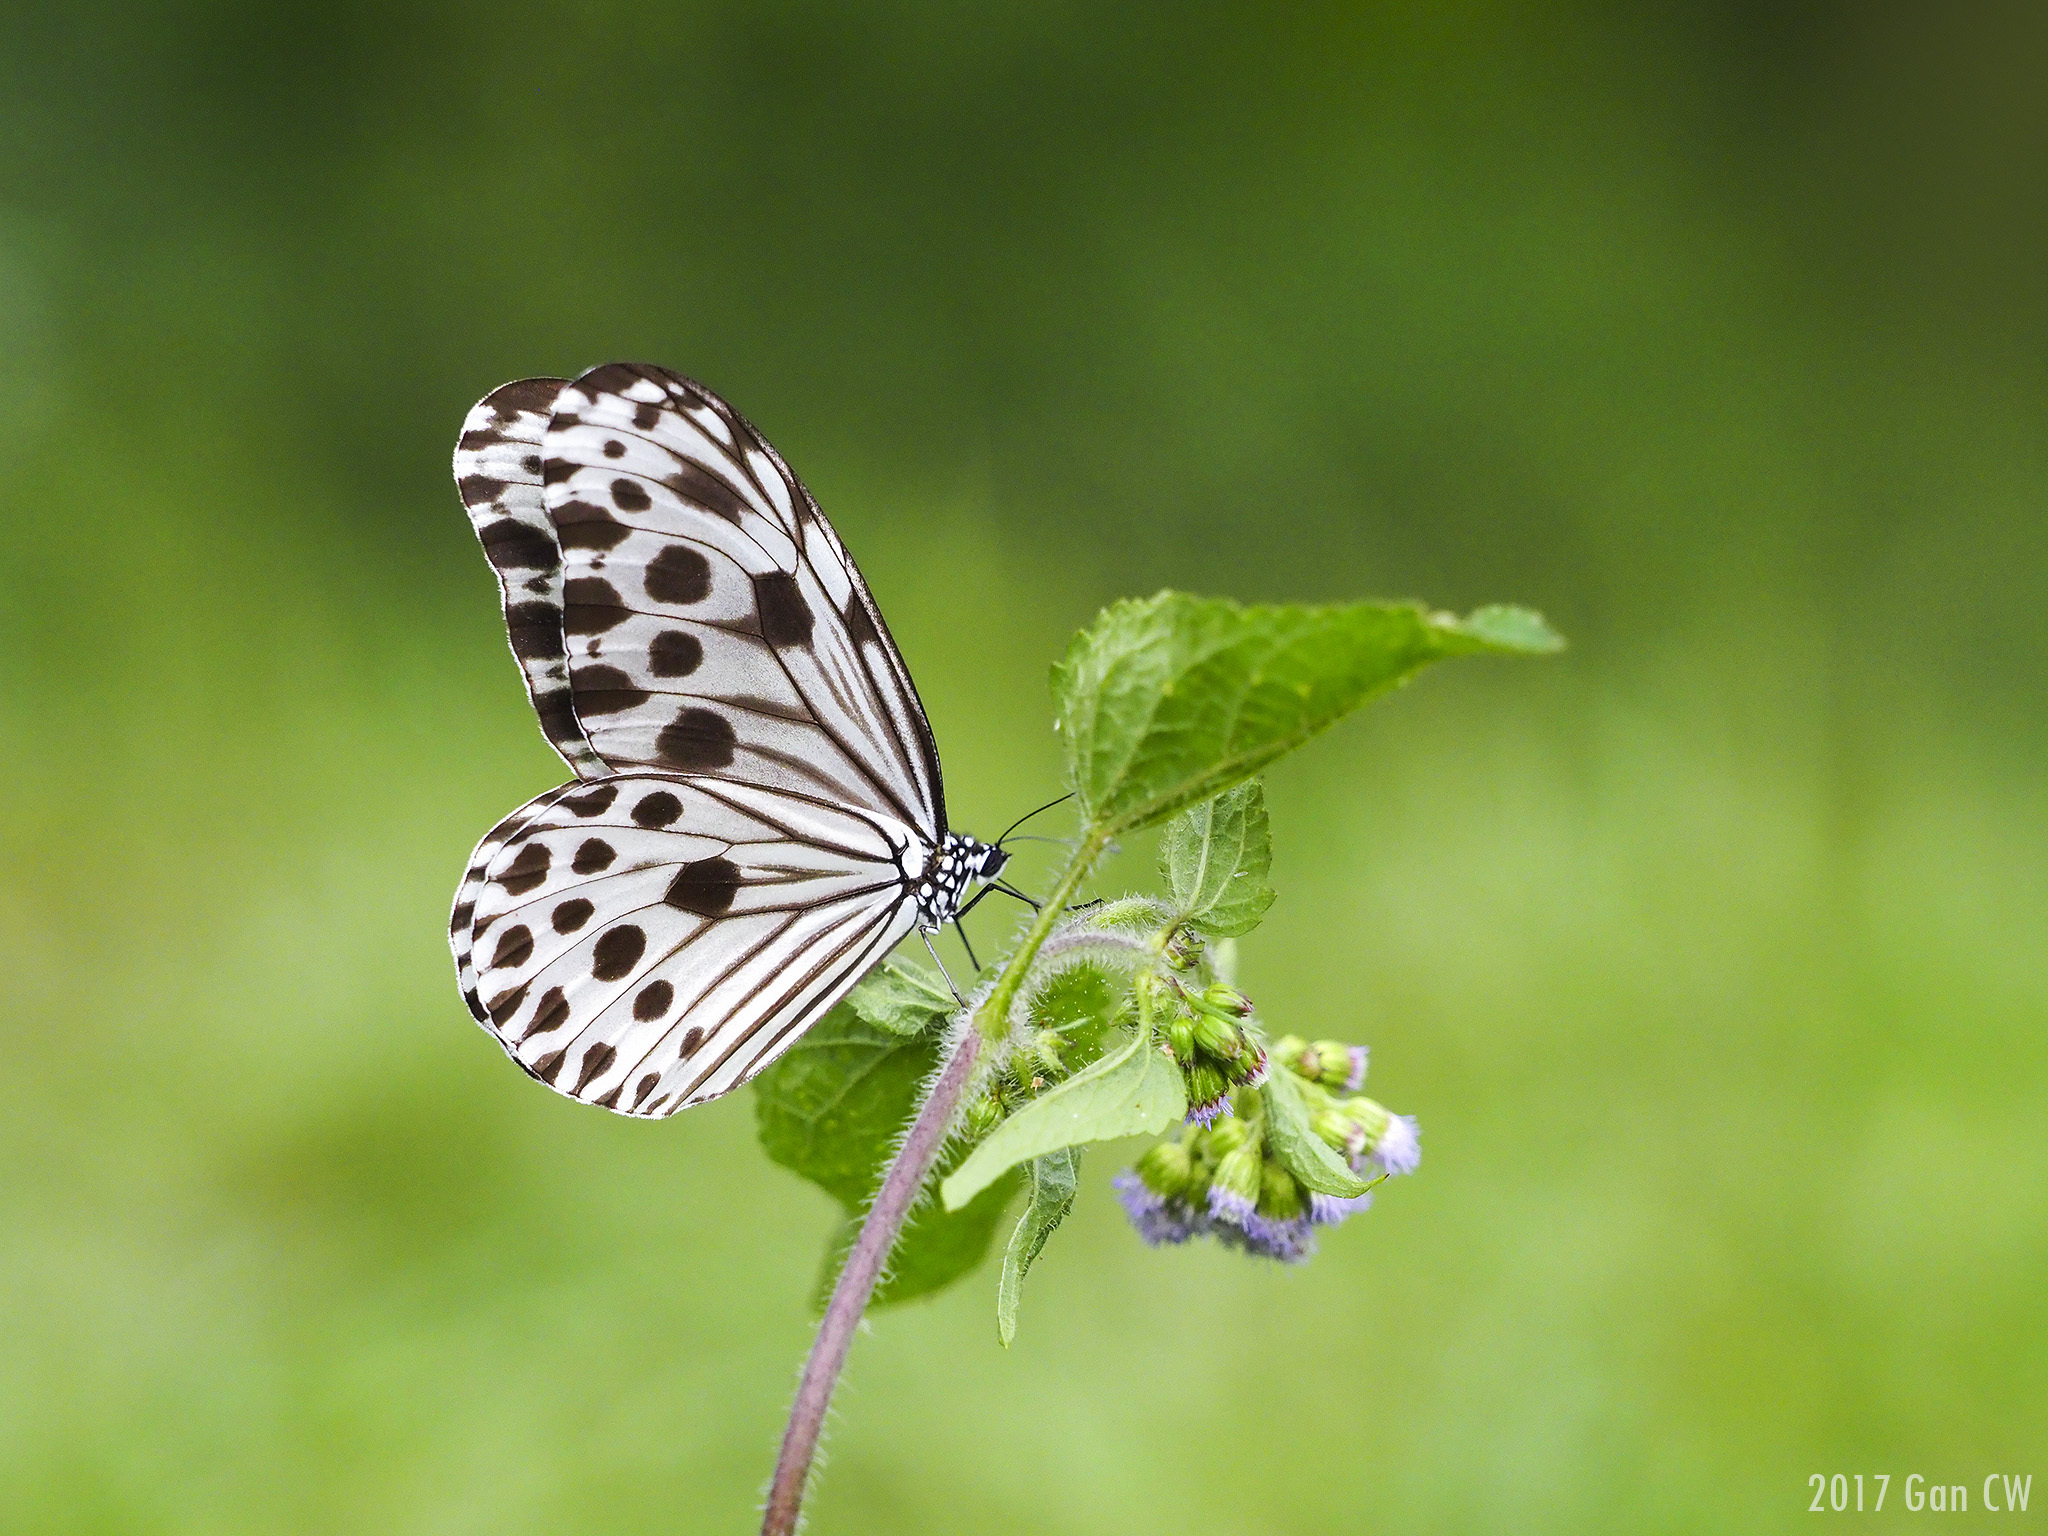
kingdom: Animalia
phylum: Arthropoda
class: Insecta
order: Lepidoptera
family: Nymphalidae
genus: Ideopsis
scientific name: Ideopsis gaura
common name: Smaller wood nymph
